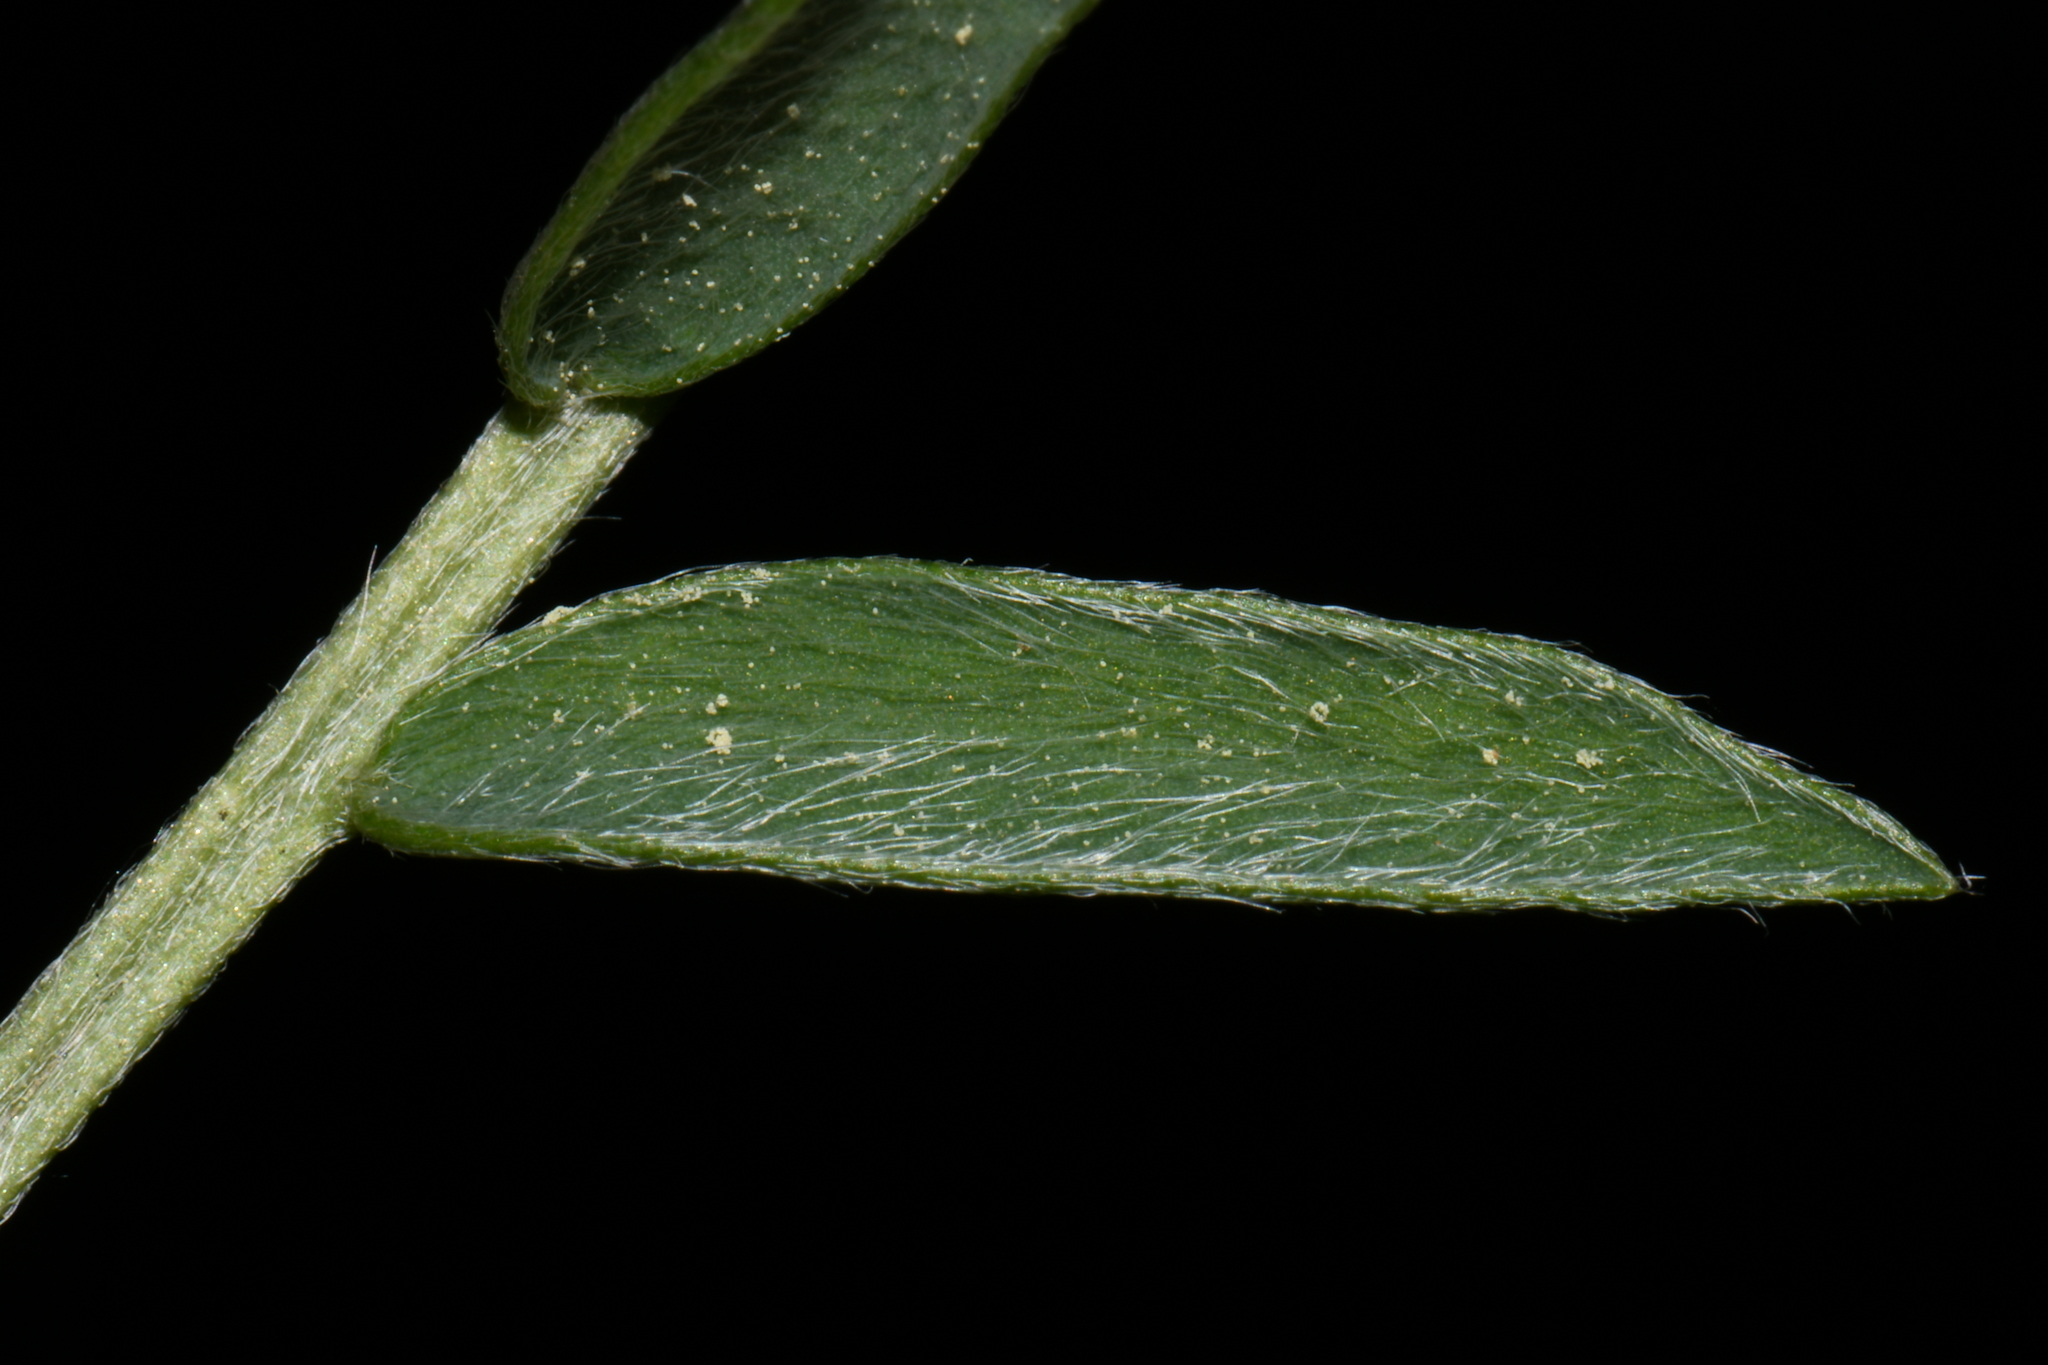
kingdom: Plantae
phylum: Tracheophyta
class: Magnoliopsida
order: Fabales
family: Fabaceae
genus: Oxytropis
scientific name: Oxytropis campestris
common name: Field locoweed
